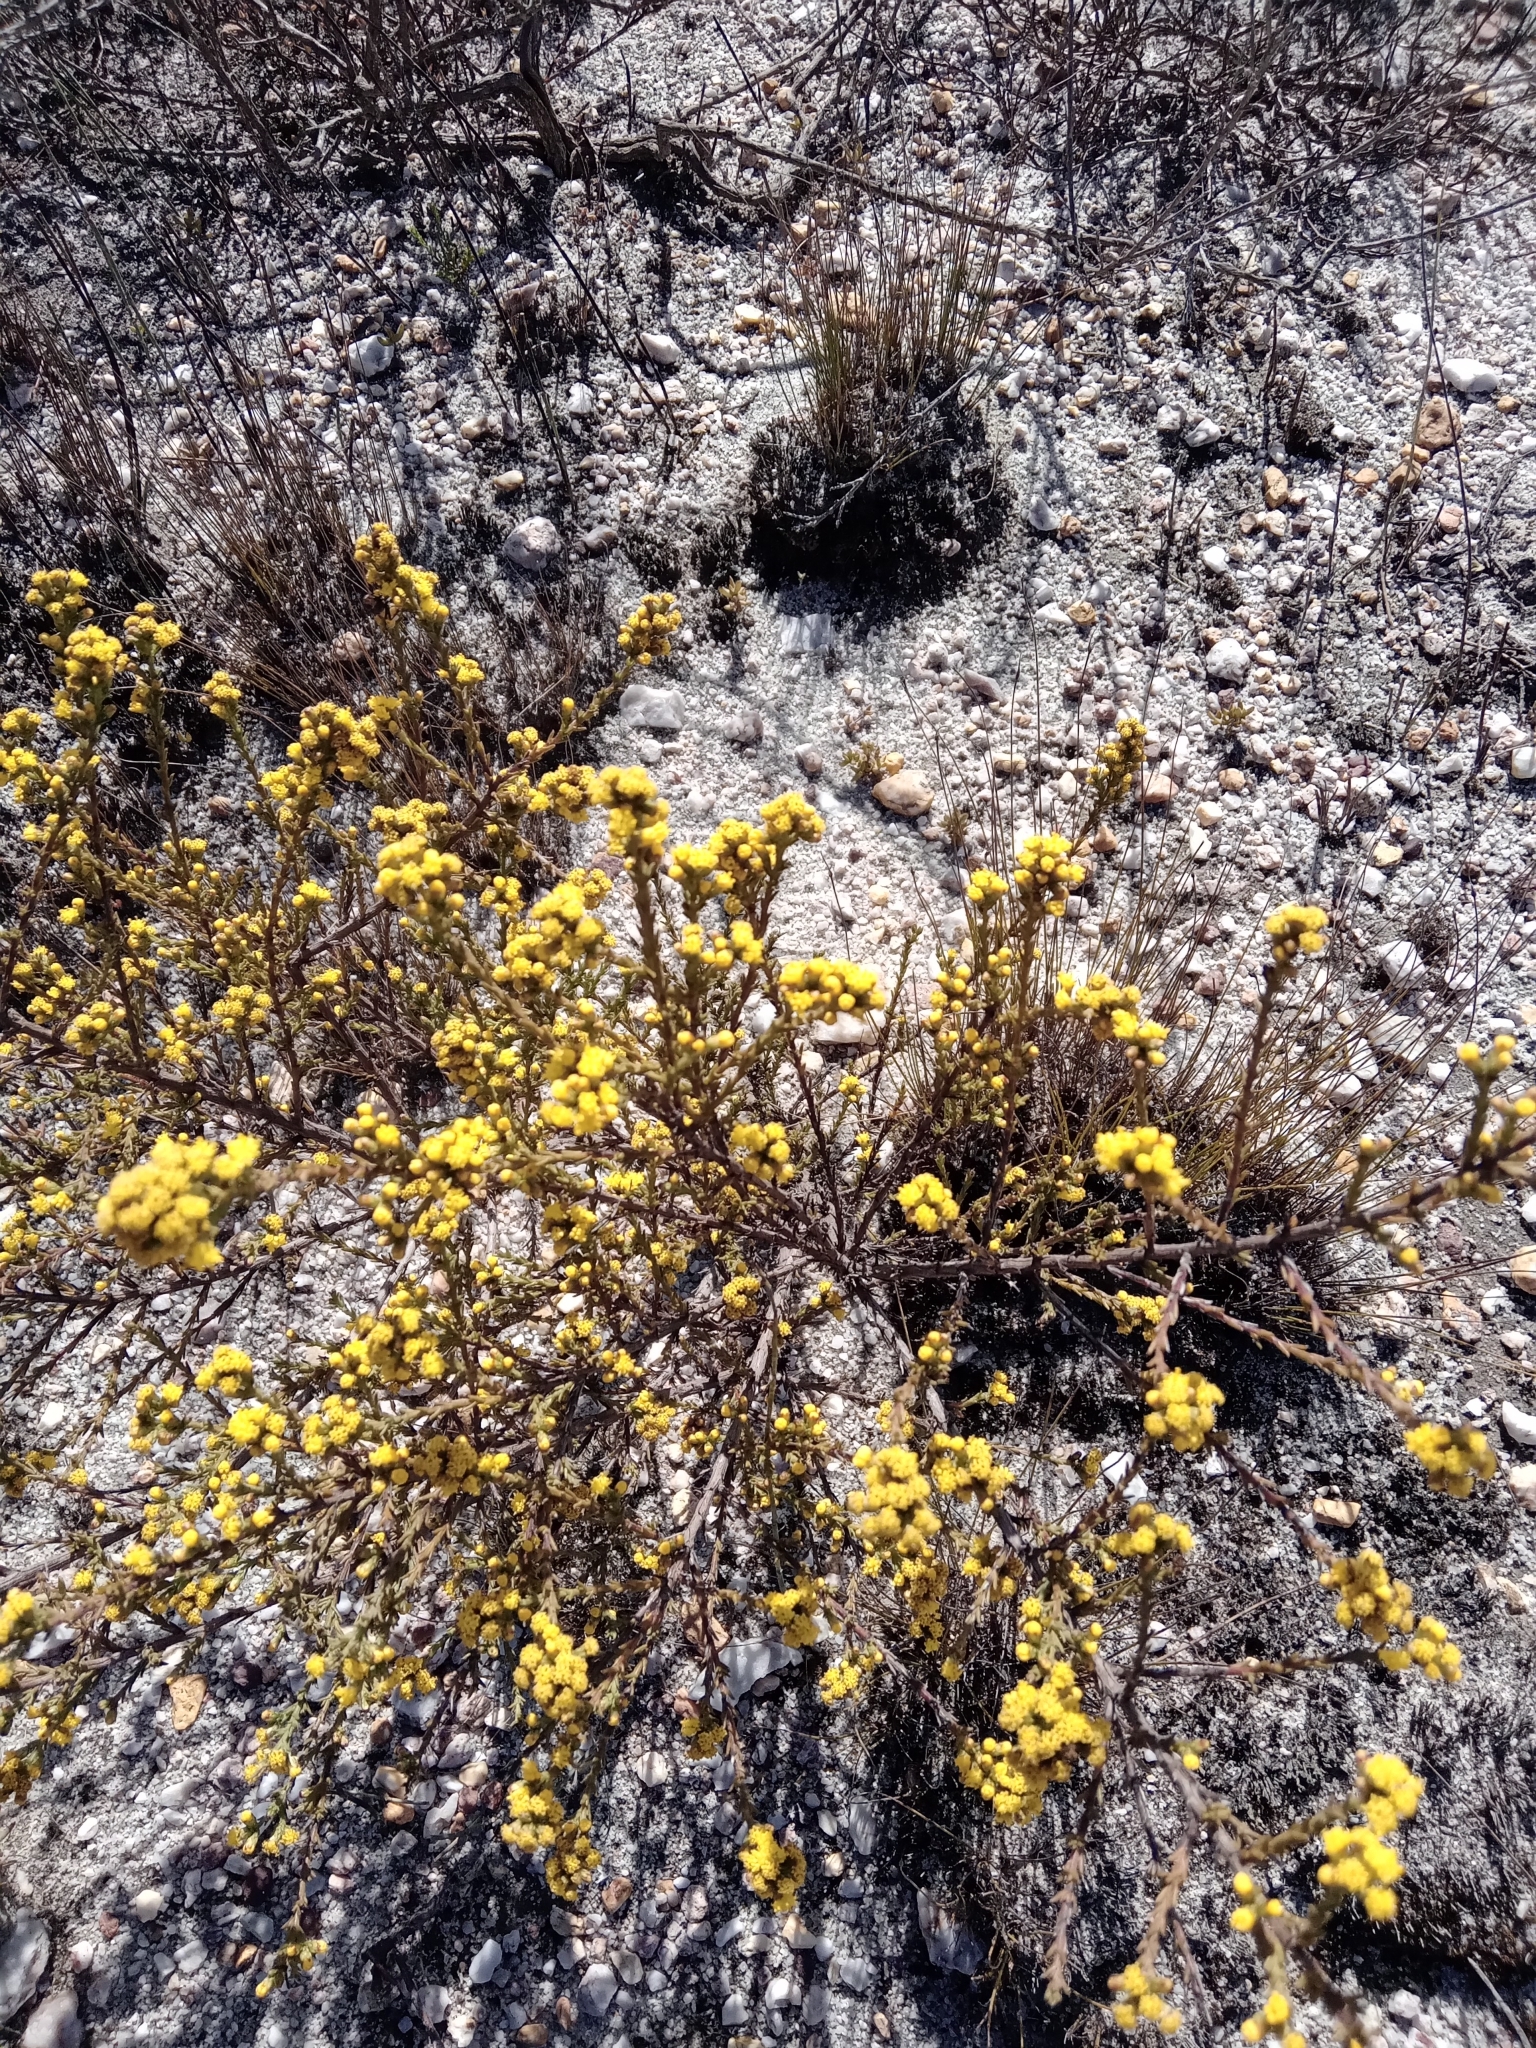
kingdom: Plantae
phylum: Tracheophyta
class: Magnoliopsida
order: Asterales
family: Asteraceae
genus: Marasmodes
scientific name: Marasmodes dummeri
